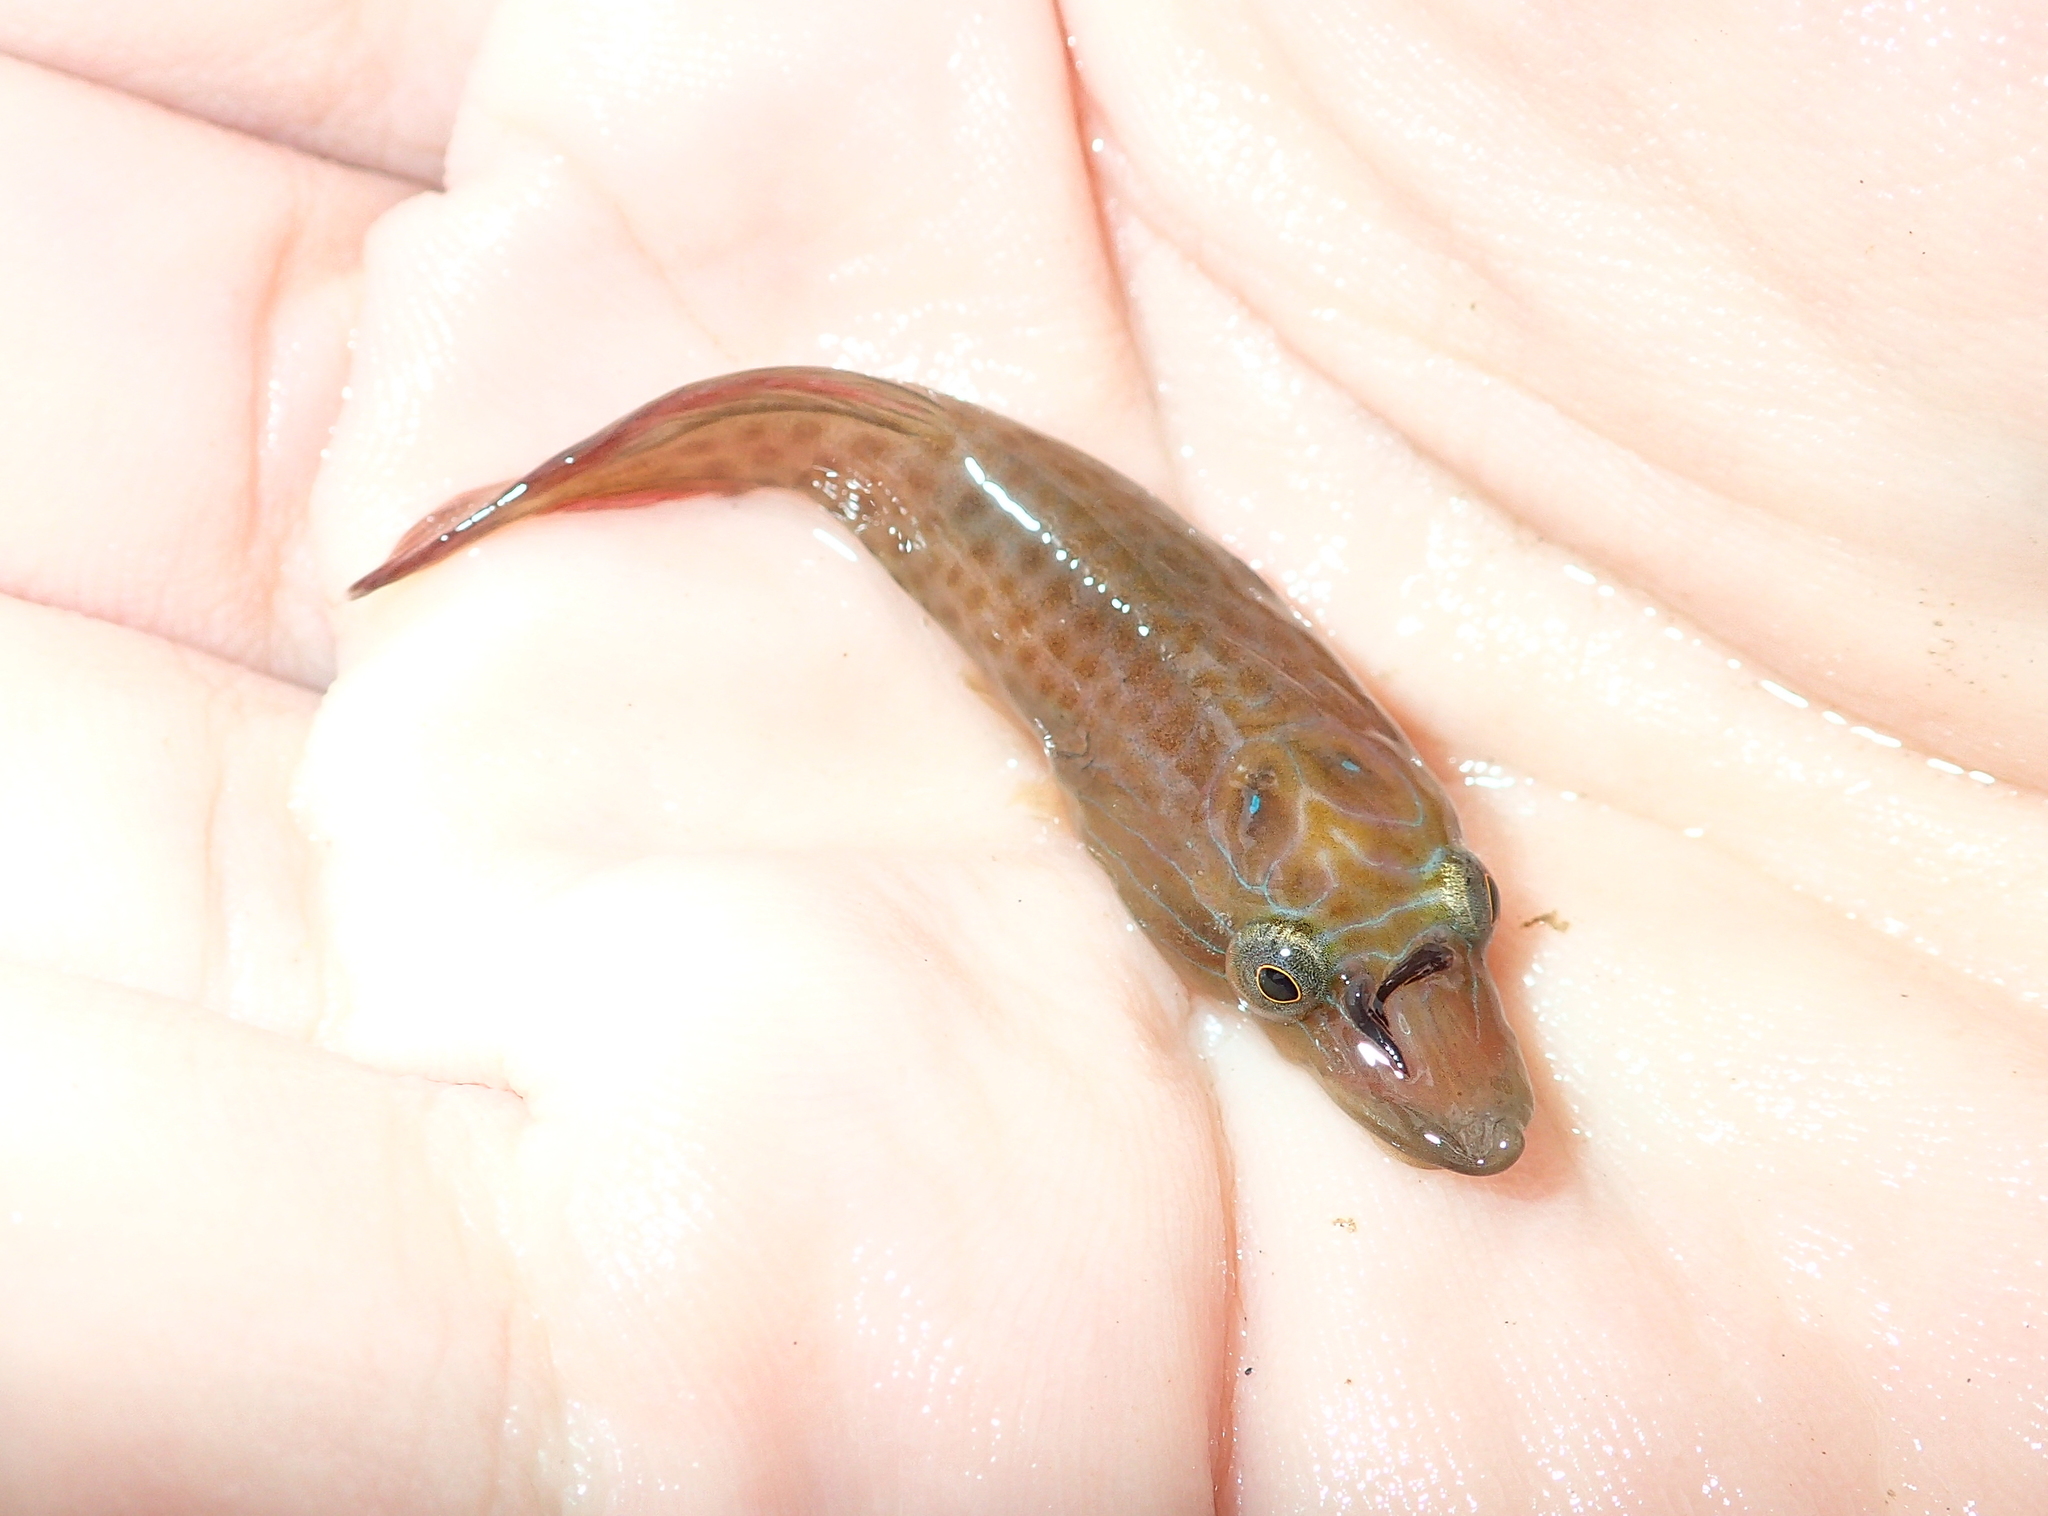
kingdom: Animalia
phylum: Chordata
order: Gobiesociformes
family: Gobiesocidae
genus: Lepadogaster
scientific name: Lepadogaster lepadogaster
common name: Cornish sucker
